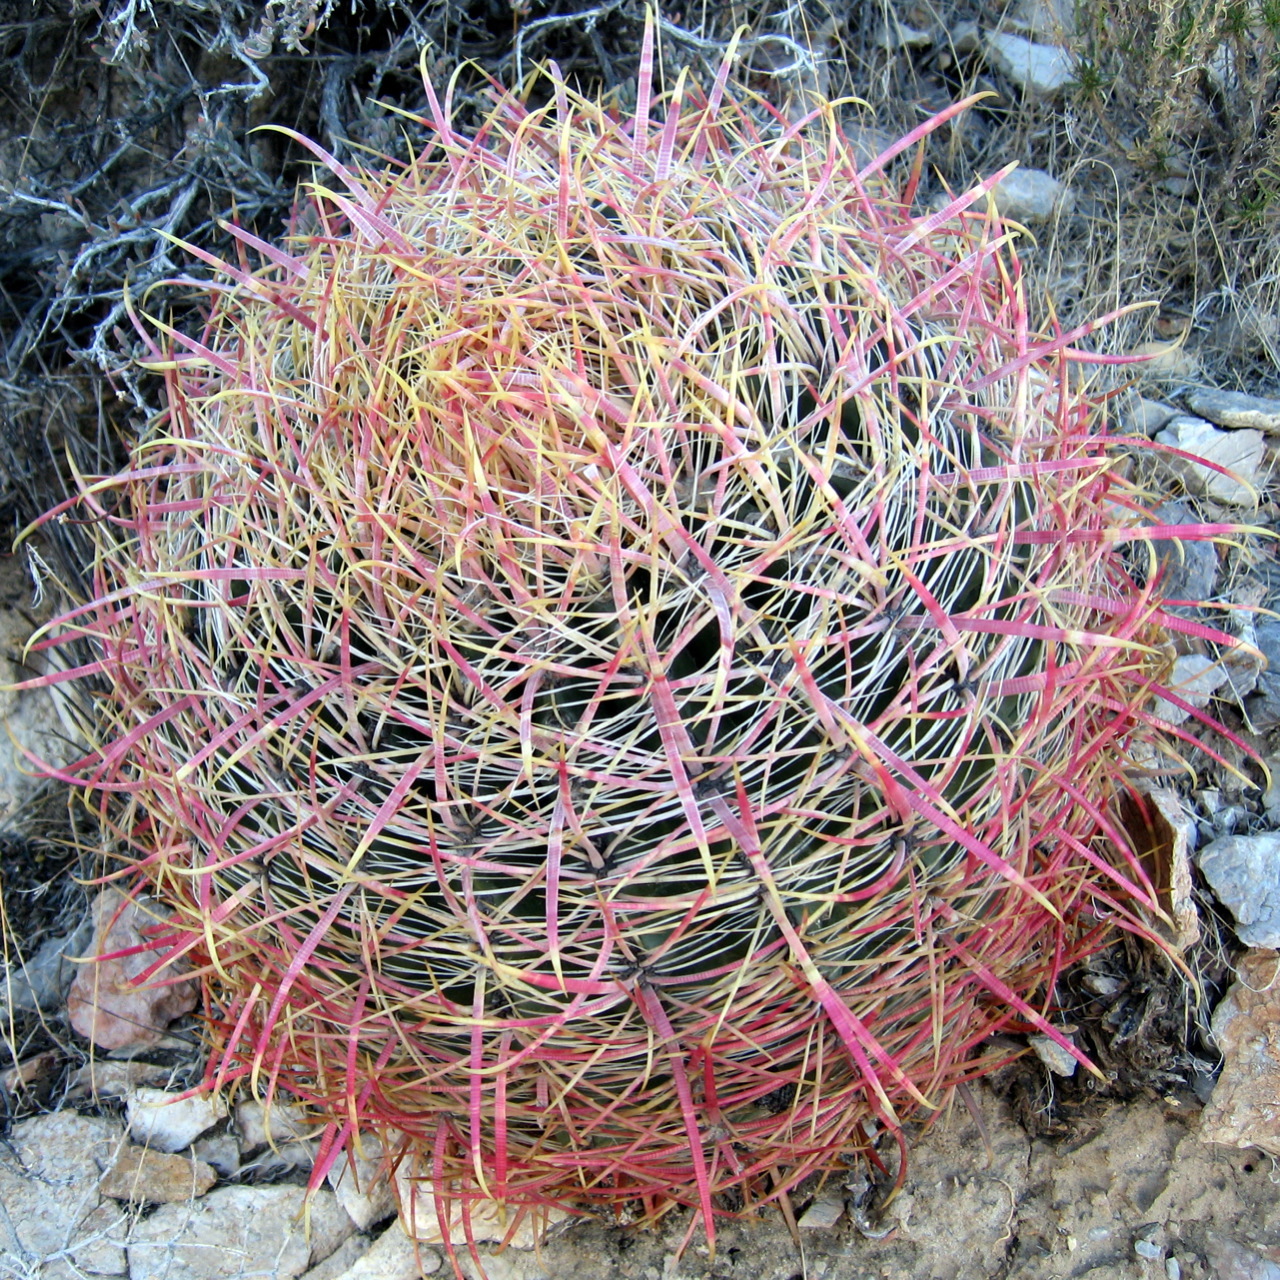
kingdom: Plantae
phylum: Tracheophyta
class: Magnoliopsida
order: Caryophyllales
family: Cactaceae
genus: Ferocactus
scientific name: Ferocactus cylindraceus
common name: California barrel cactus
